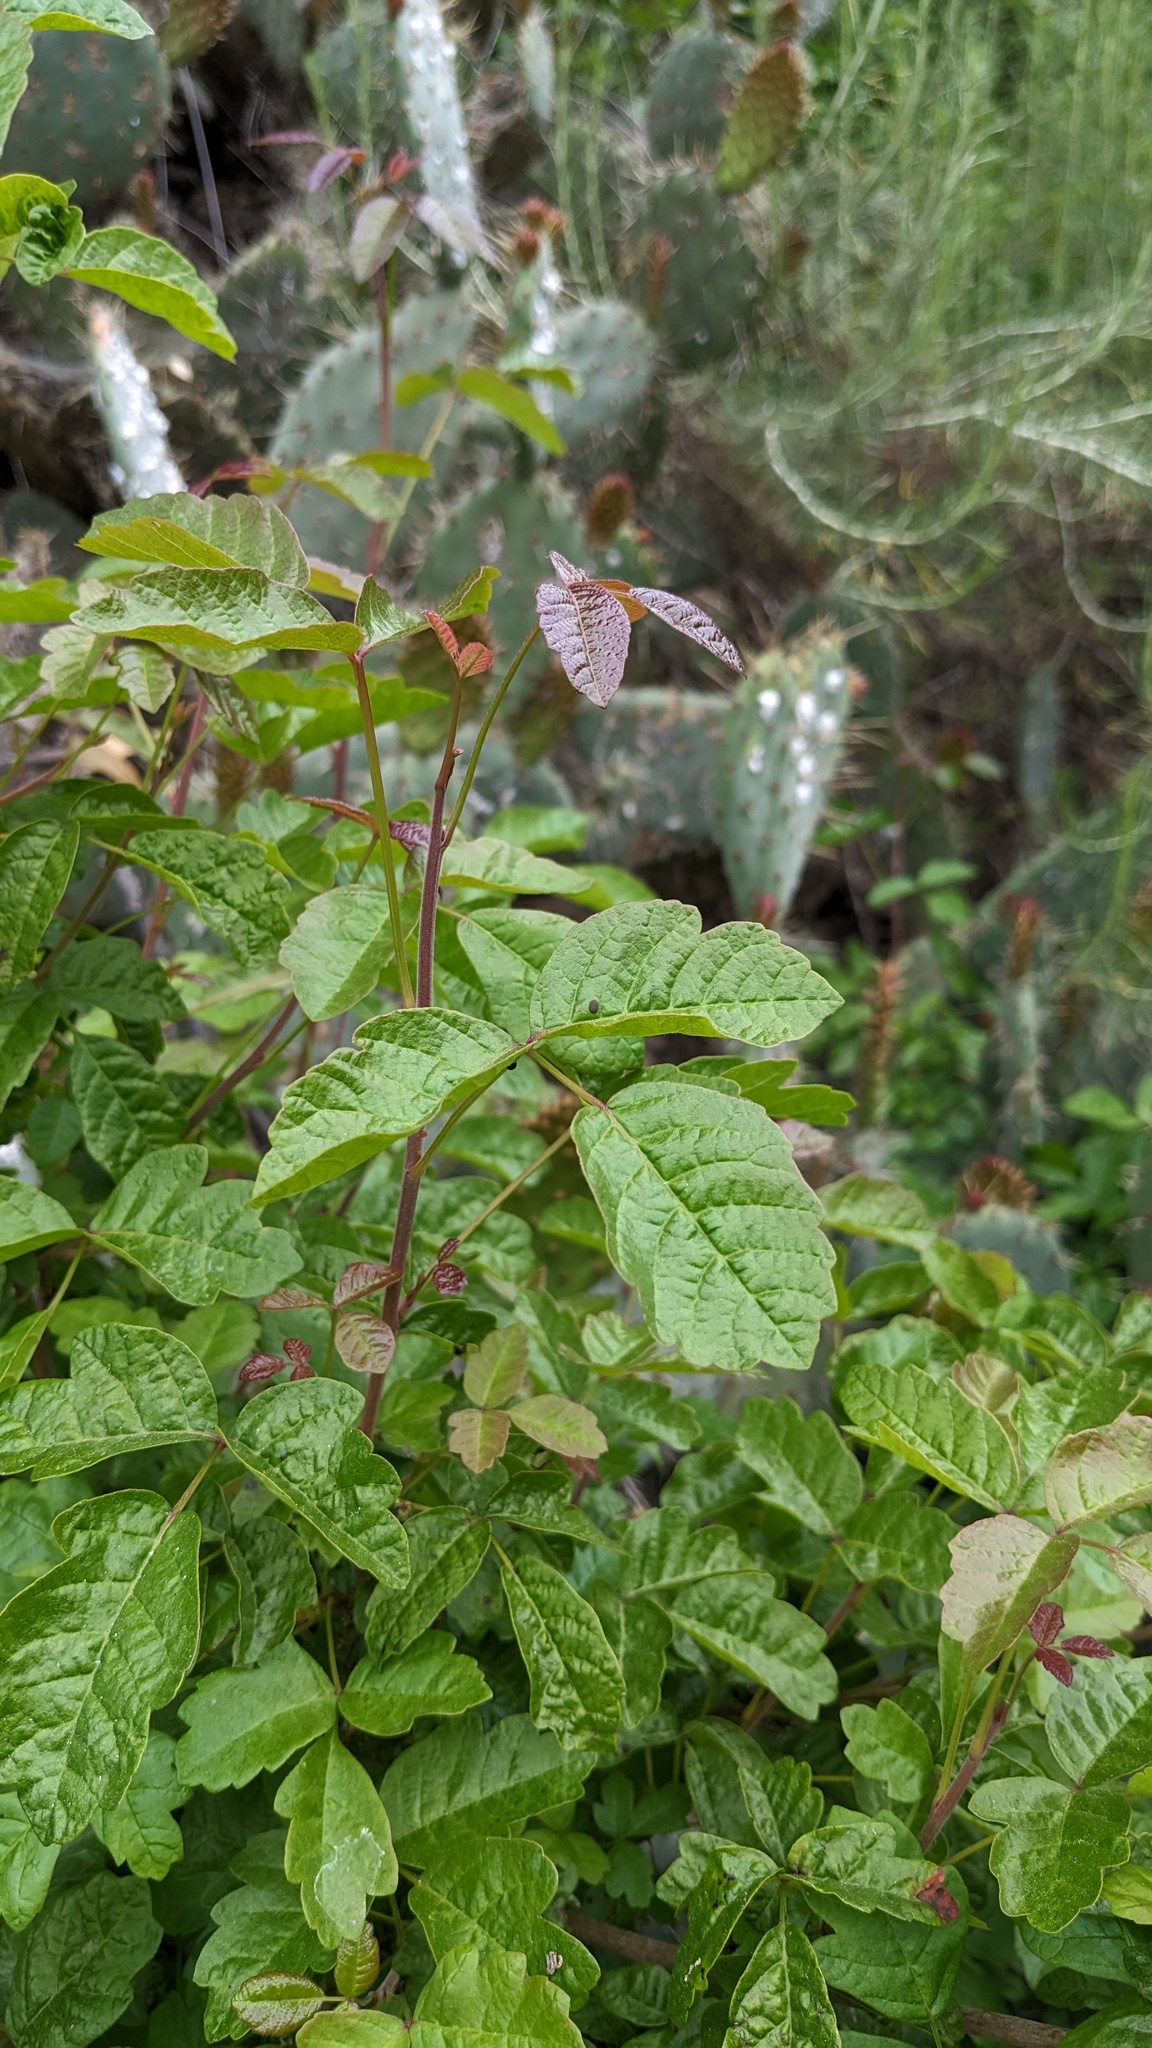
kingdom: Plantae
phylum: Tracheophyta
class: Magnoliopsida
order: Sapindales
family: Anacardiaceae
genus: Toxicodendron
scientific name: Toxicodendron diversilobum
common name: Pacific poison-oak
